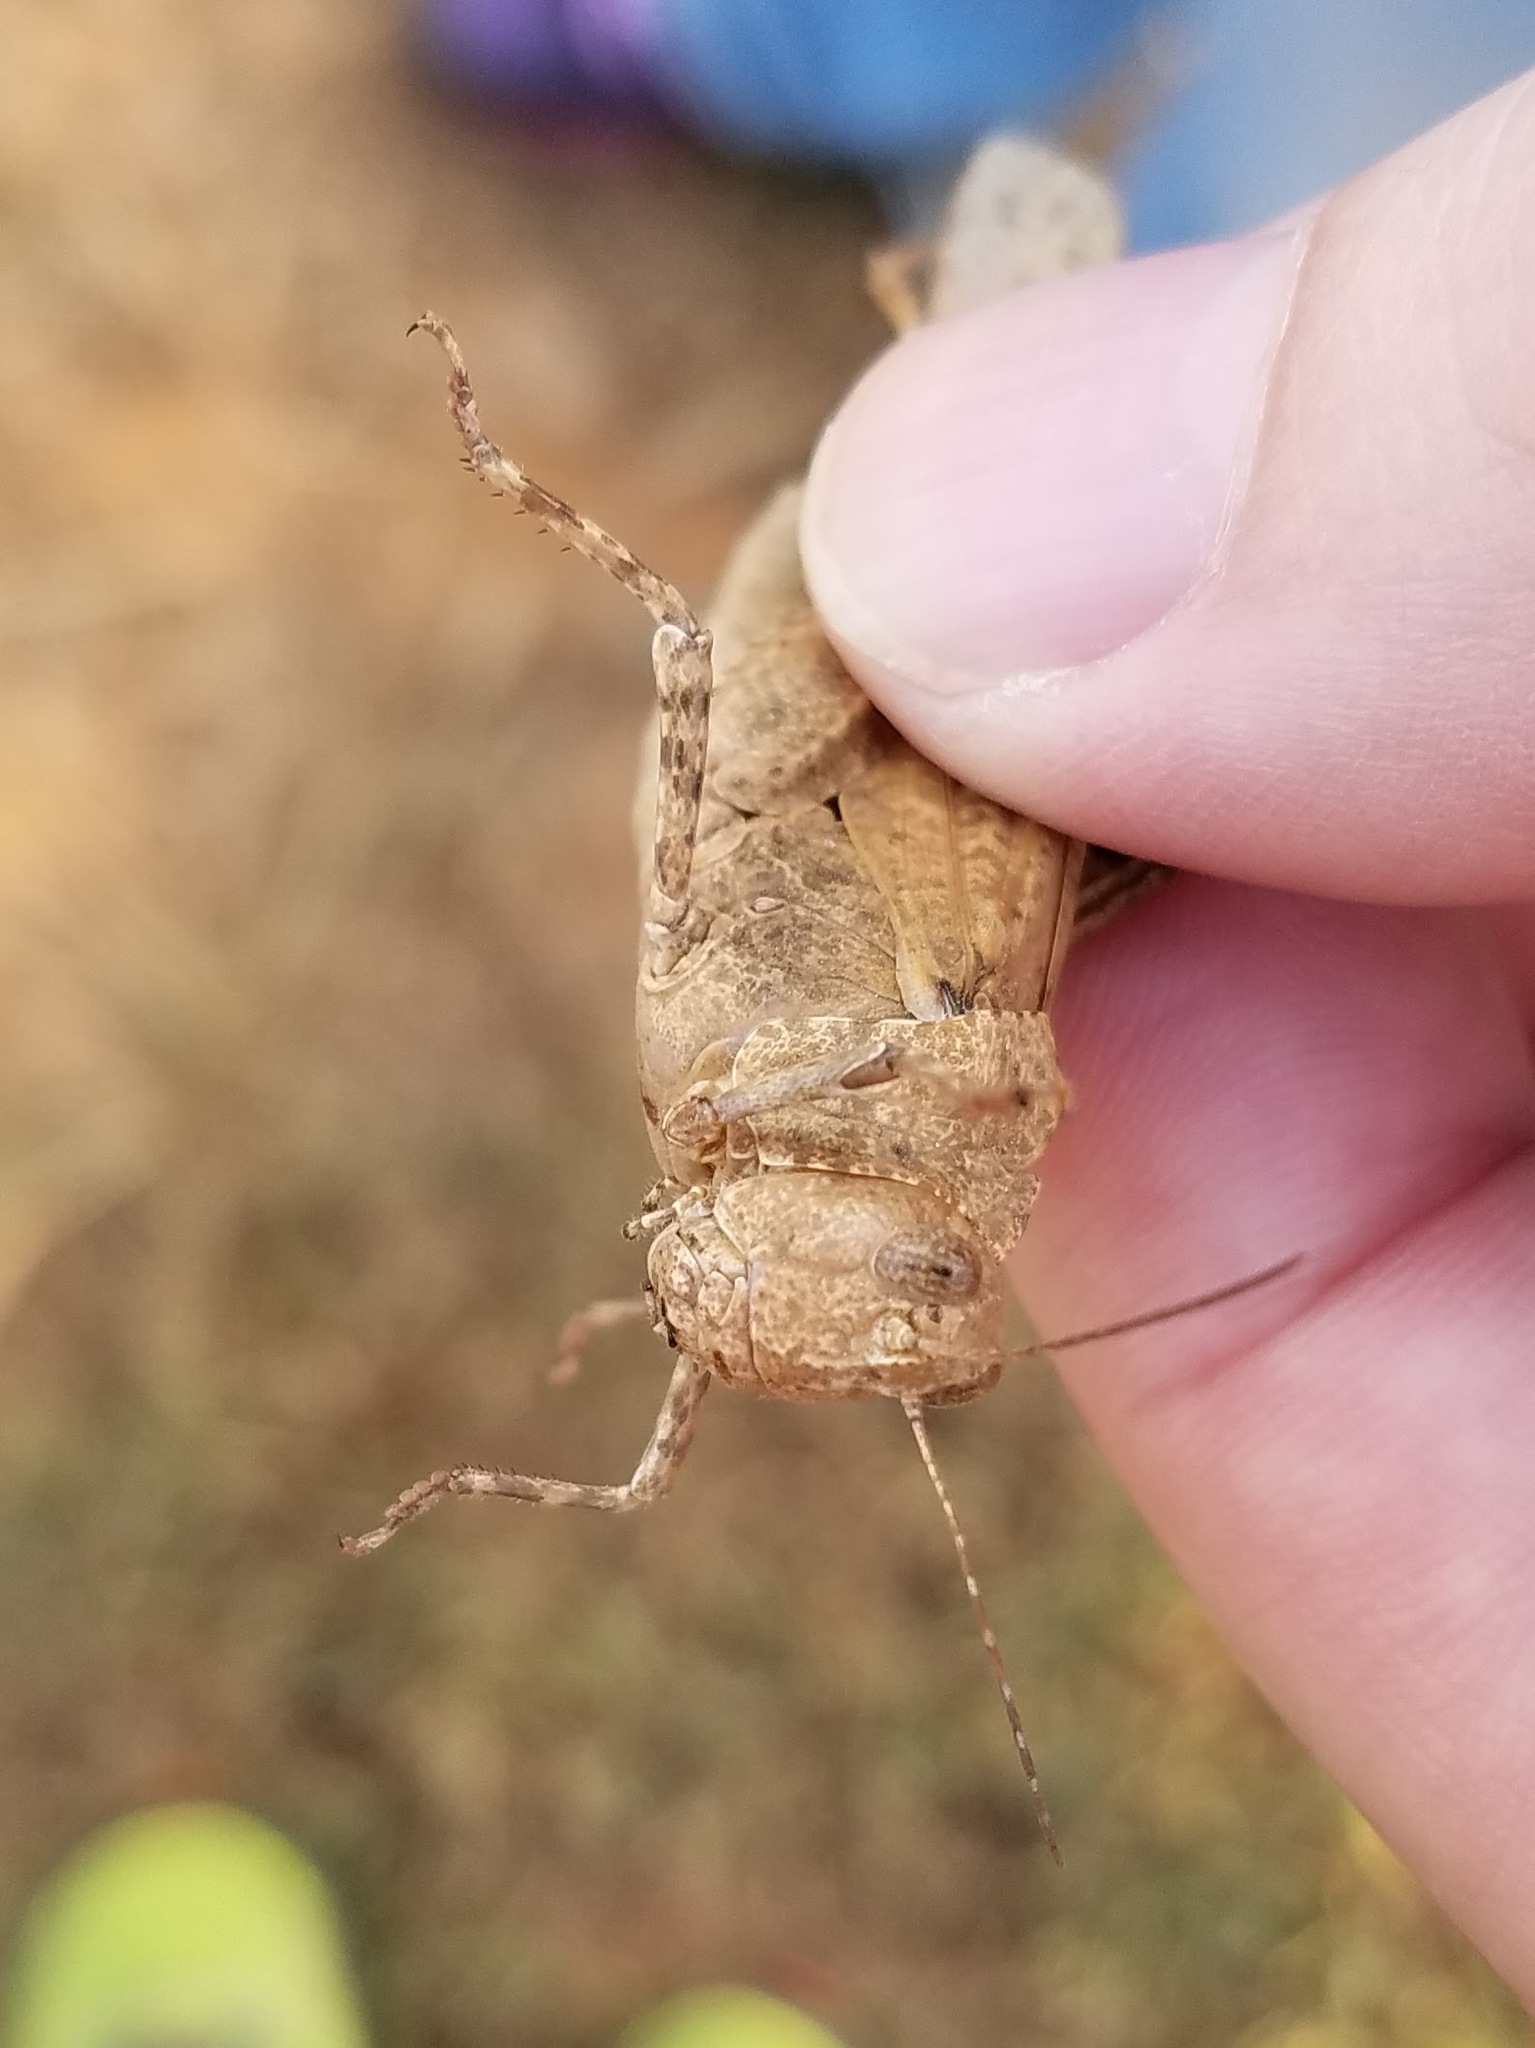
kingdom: Animalia
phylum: Arthropoda
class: Insecta
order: Orthoptera
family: Acrididae
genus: Dissosteira
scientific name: Dissosteira carolina
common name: Carolina grasshopper
